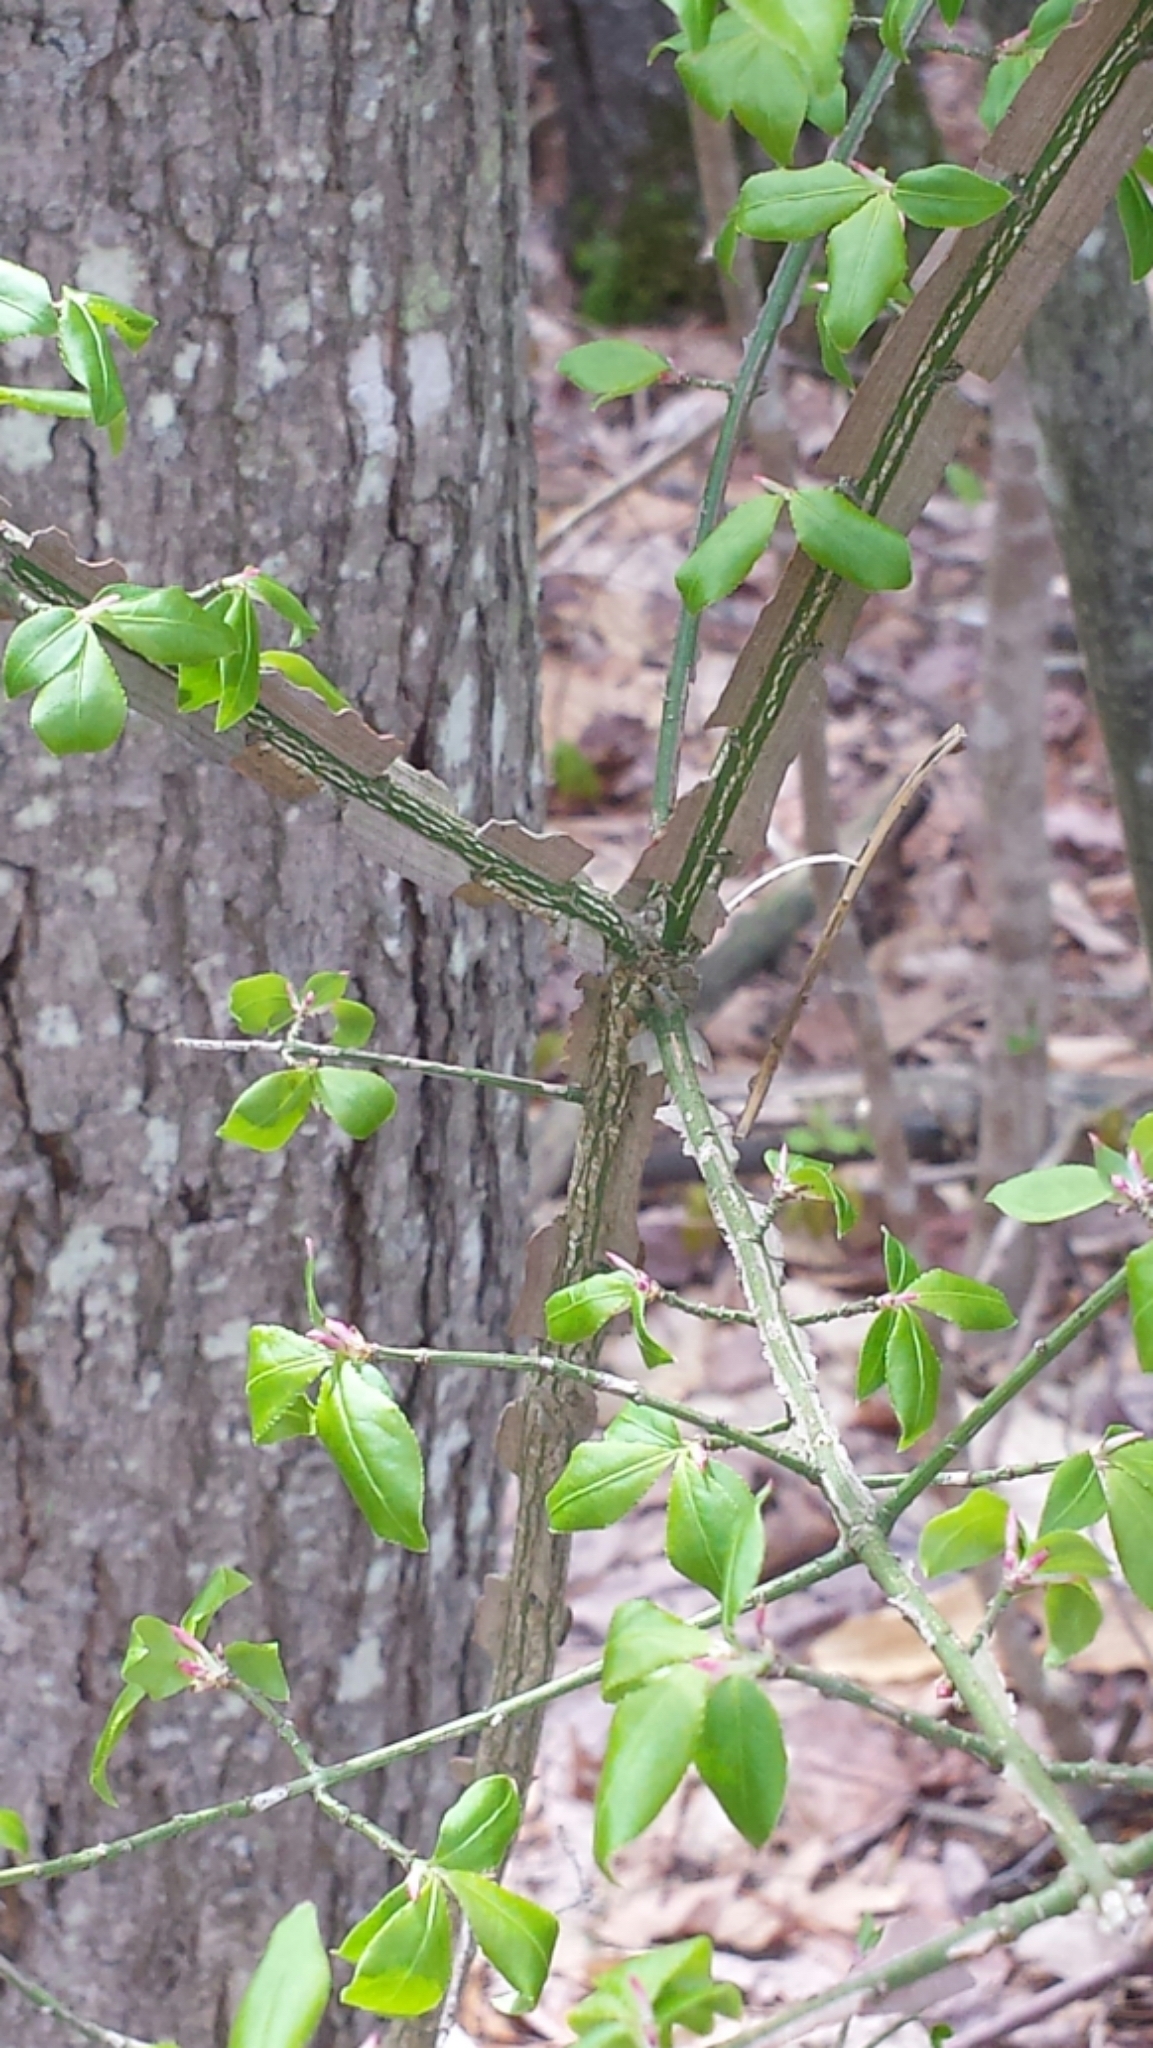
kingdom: Plantae
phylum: Tracheophyta
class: Magnoliopsida
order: Celastrales
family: Celastraceae
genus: Euonymus
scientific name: Euonymus alatus
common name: Winged euonymus
